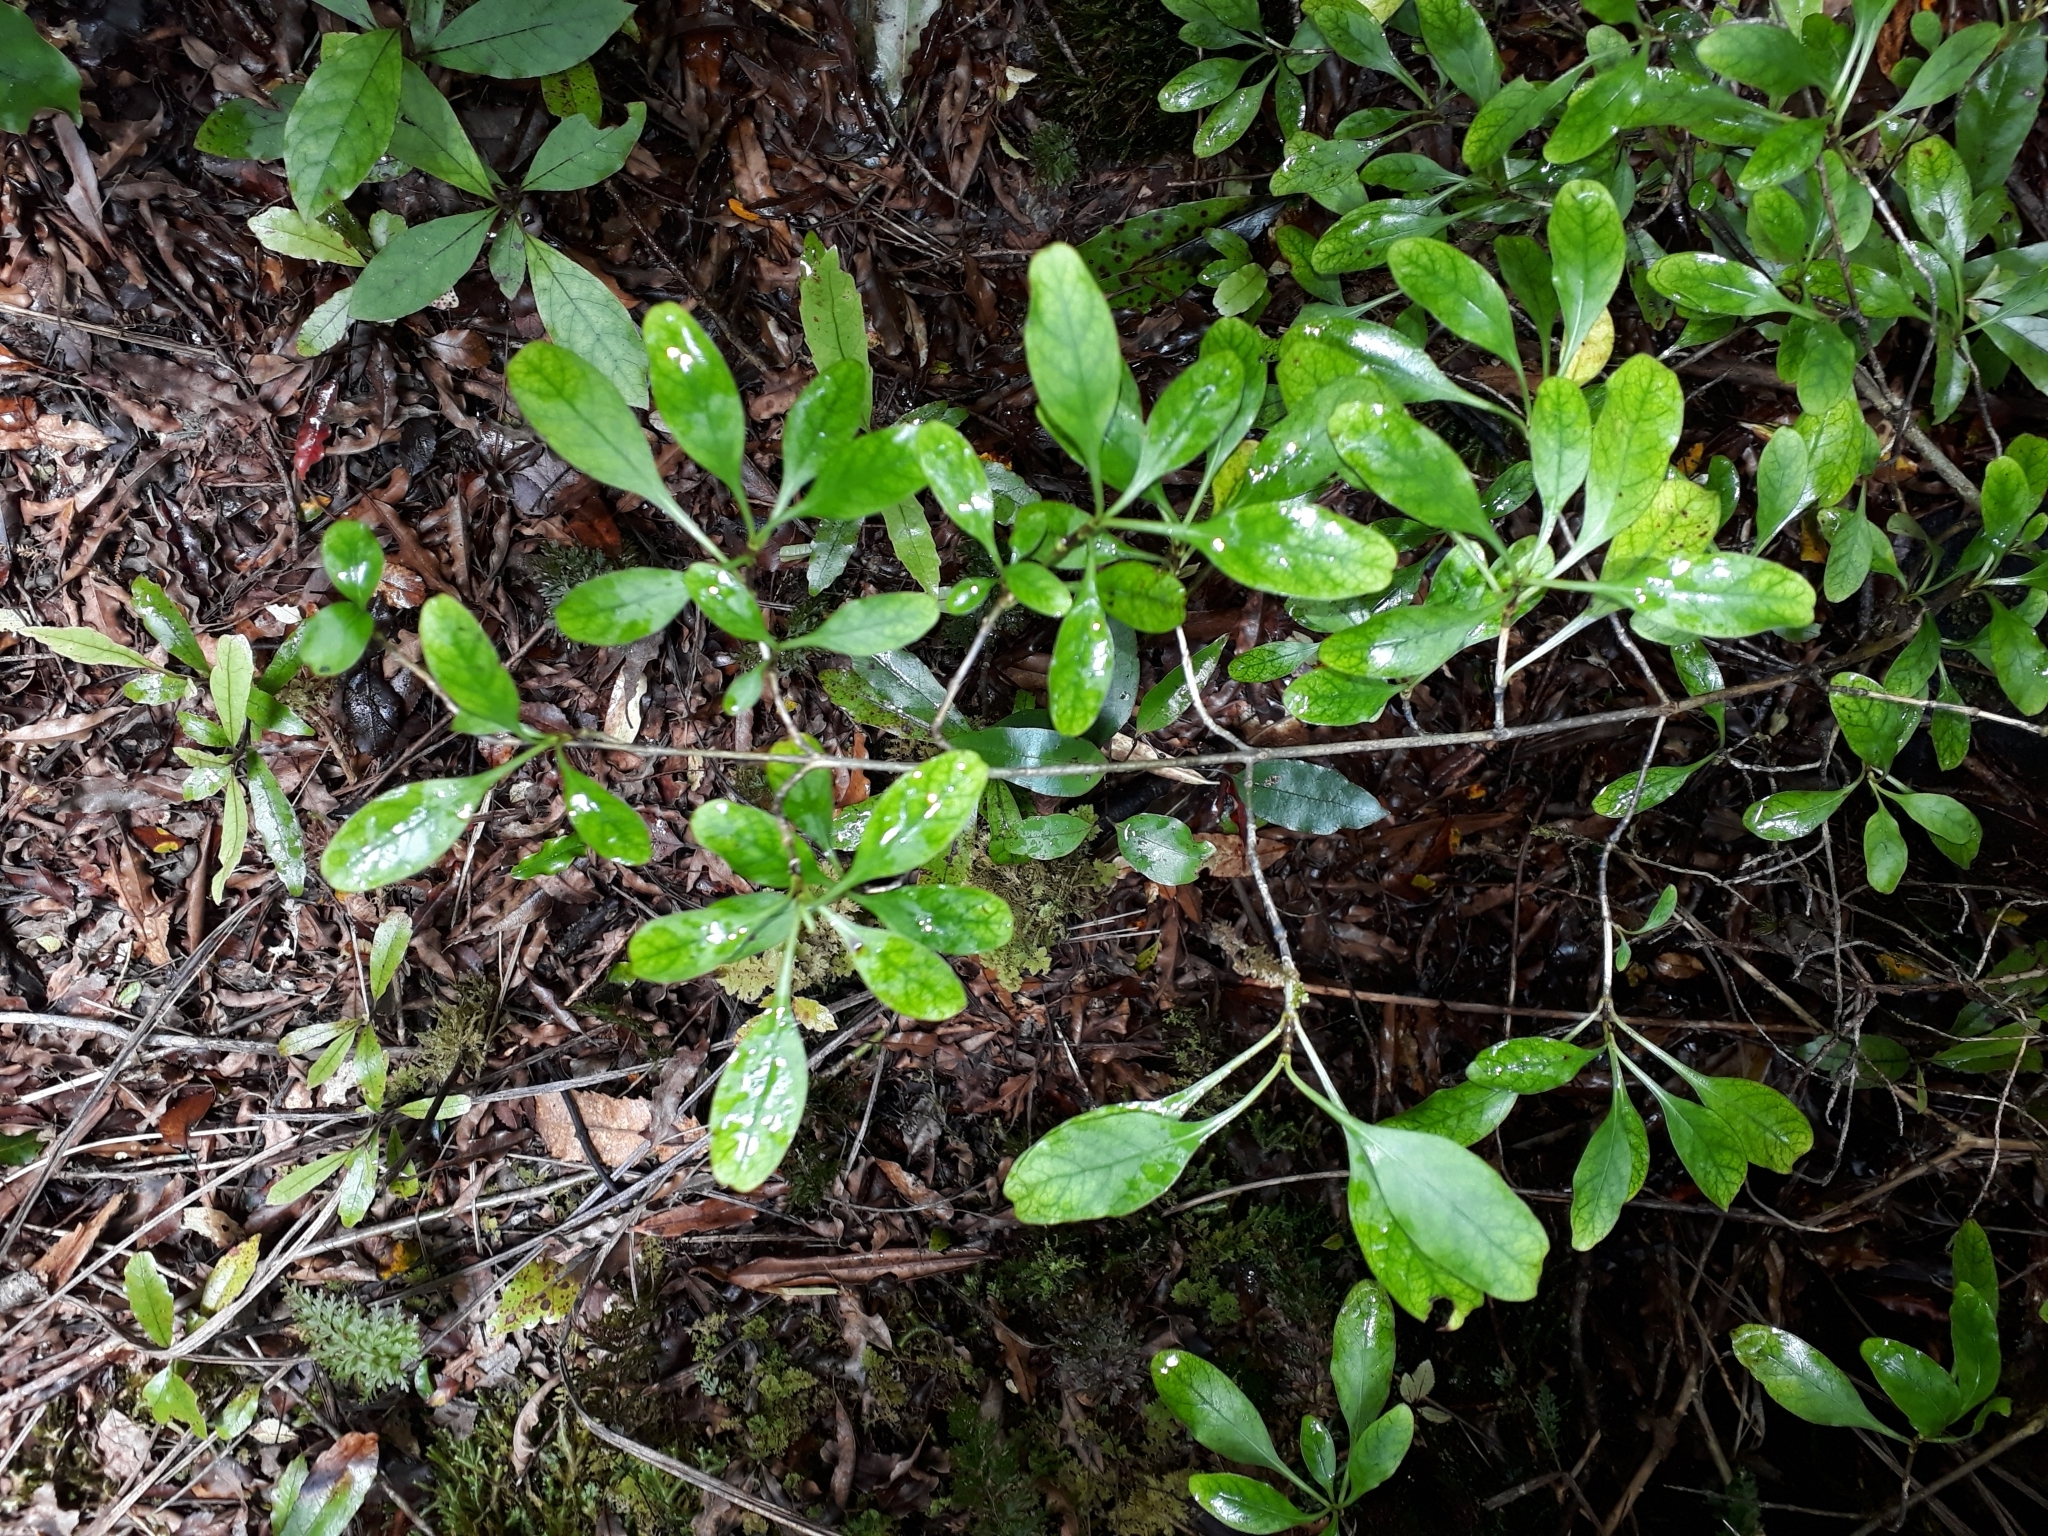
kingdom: Plantae
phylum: Tracheophyta
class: Magnoliopsida
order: Gentianales
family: Rubiaceae
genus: Coprosma
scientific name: Coprosma foetidissima
